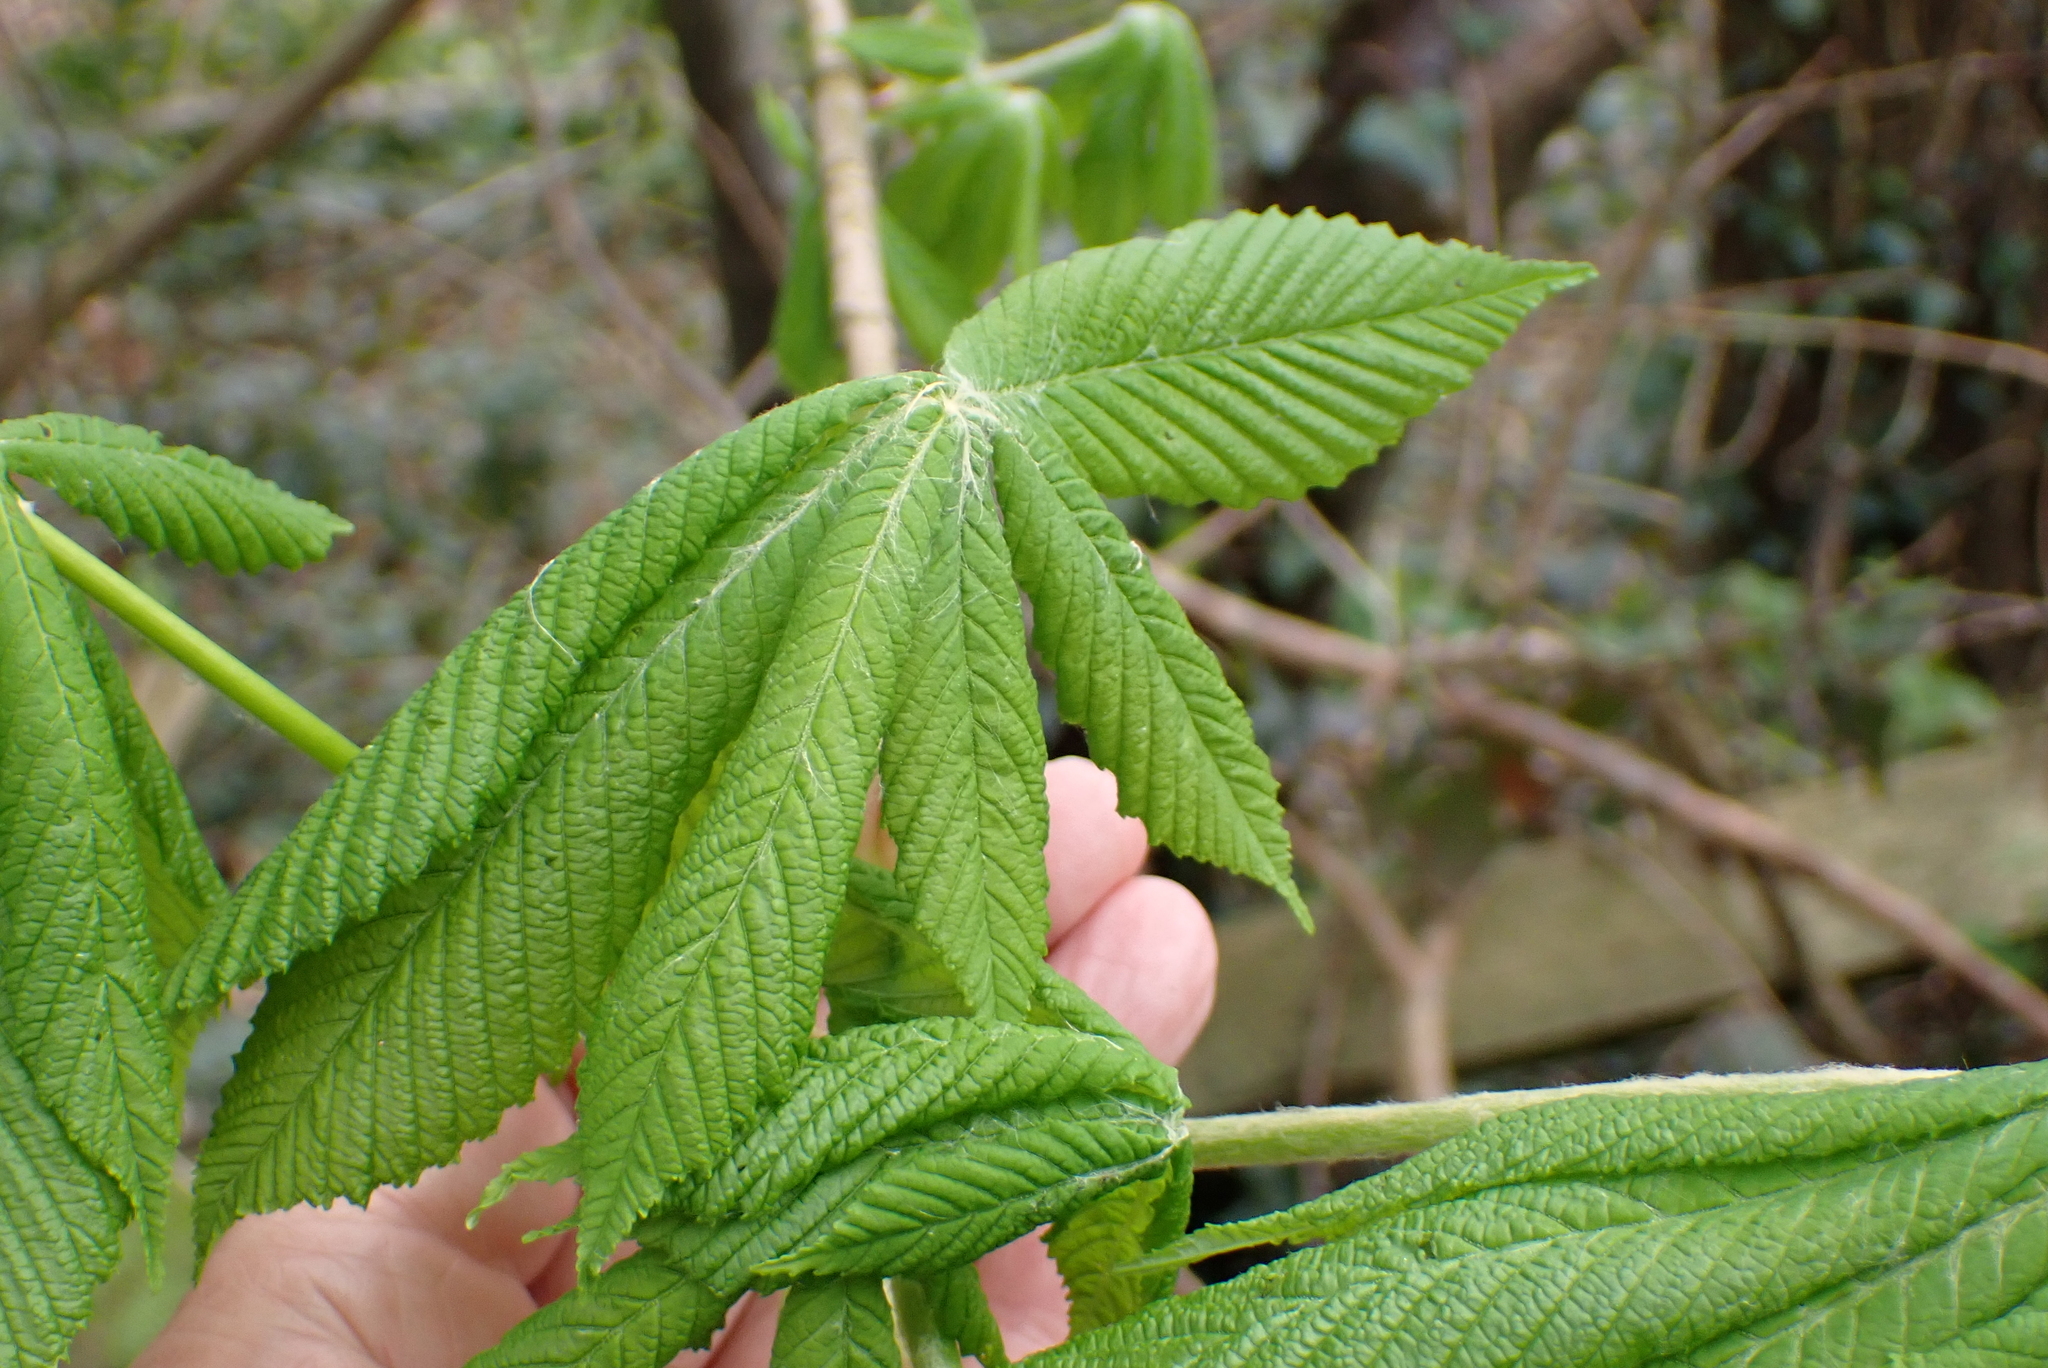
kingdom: Plantae
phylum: Tracheophyta
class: Magnoliopsida
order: Sapindales
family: Sapindaceae
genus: Aesculus
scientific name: Aesculus hippocastanum
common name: Horse-chestnut
